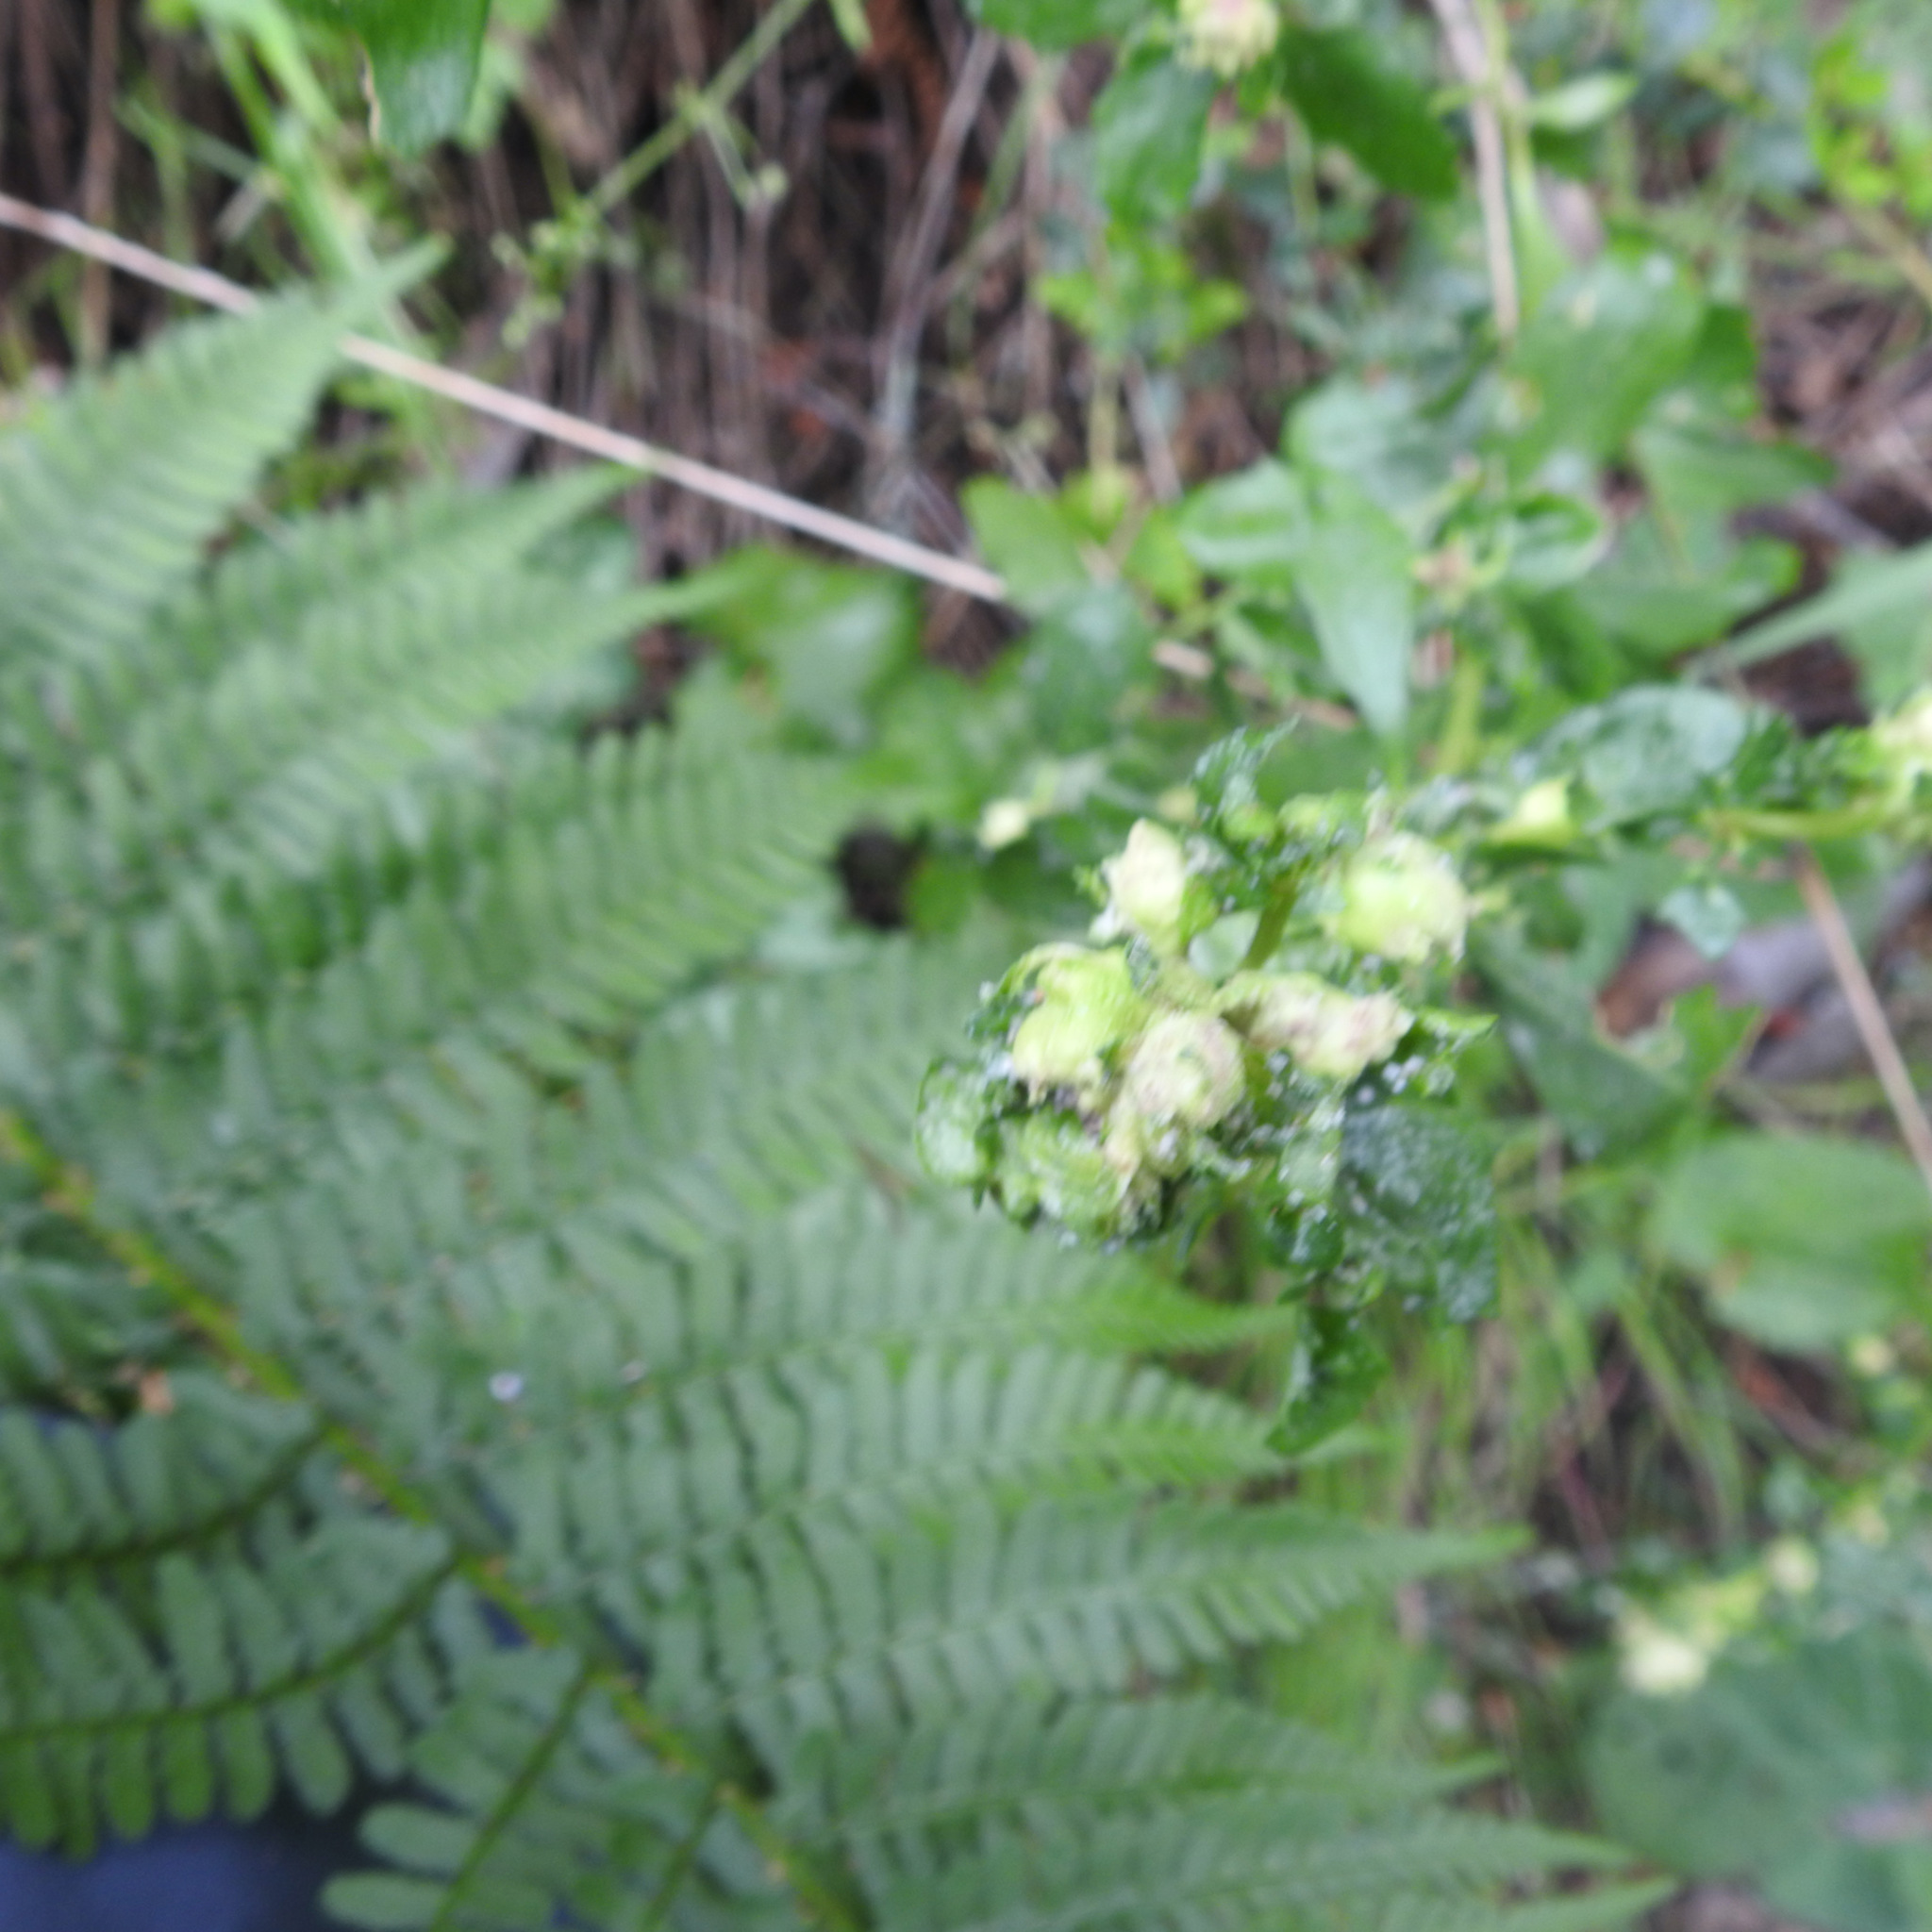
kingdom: Animalia
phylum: Arthropoda
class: Insecta
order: Diptera
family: Cecidomyiidae
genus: Rhopalomyia
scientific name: Rhopalomyia californica
